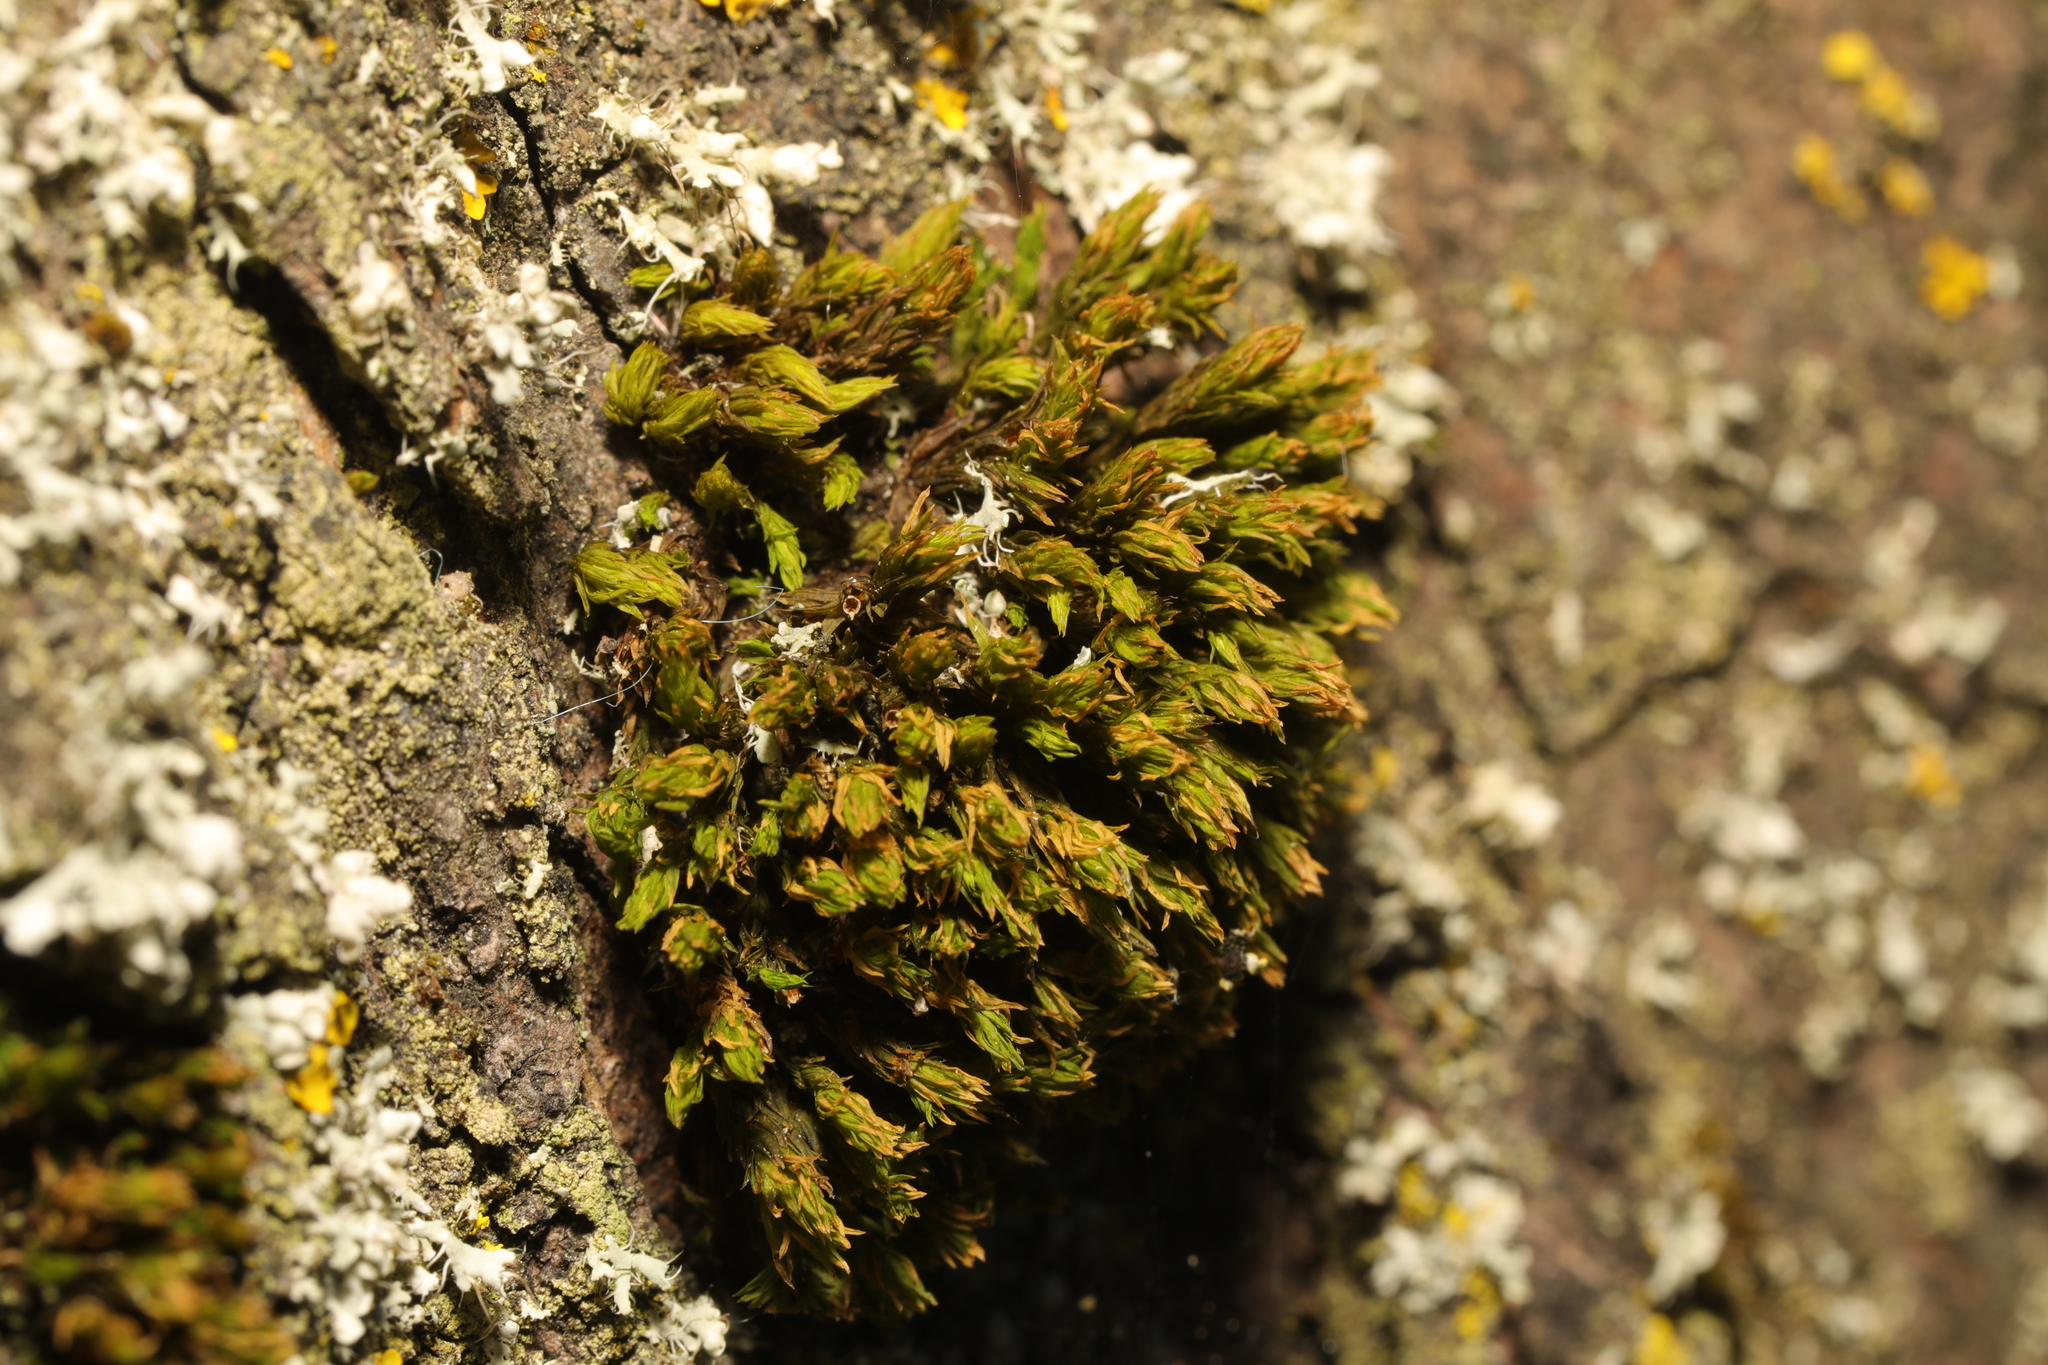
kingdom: Plantae
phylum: Bryophyta
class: Bryopsida
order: Orthotrichales
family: Orthotrichaceae
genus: Lewinskya
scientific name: Lewinskya affinis
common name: Wood bristle-moss
